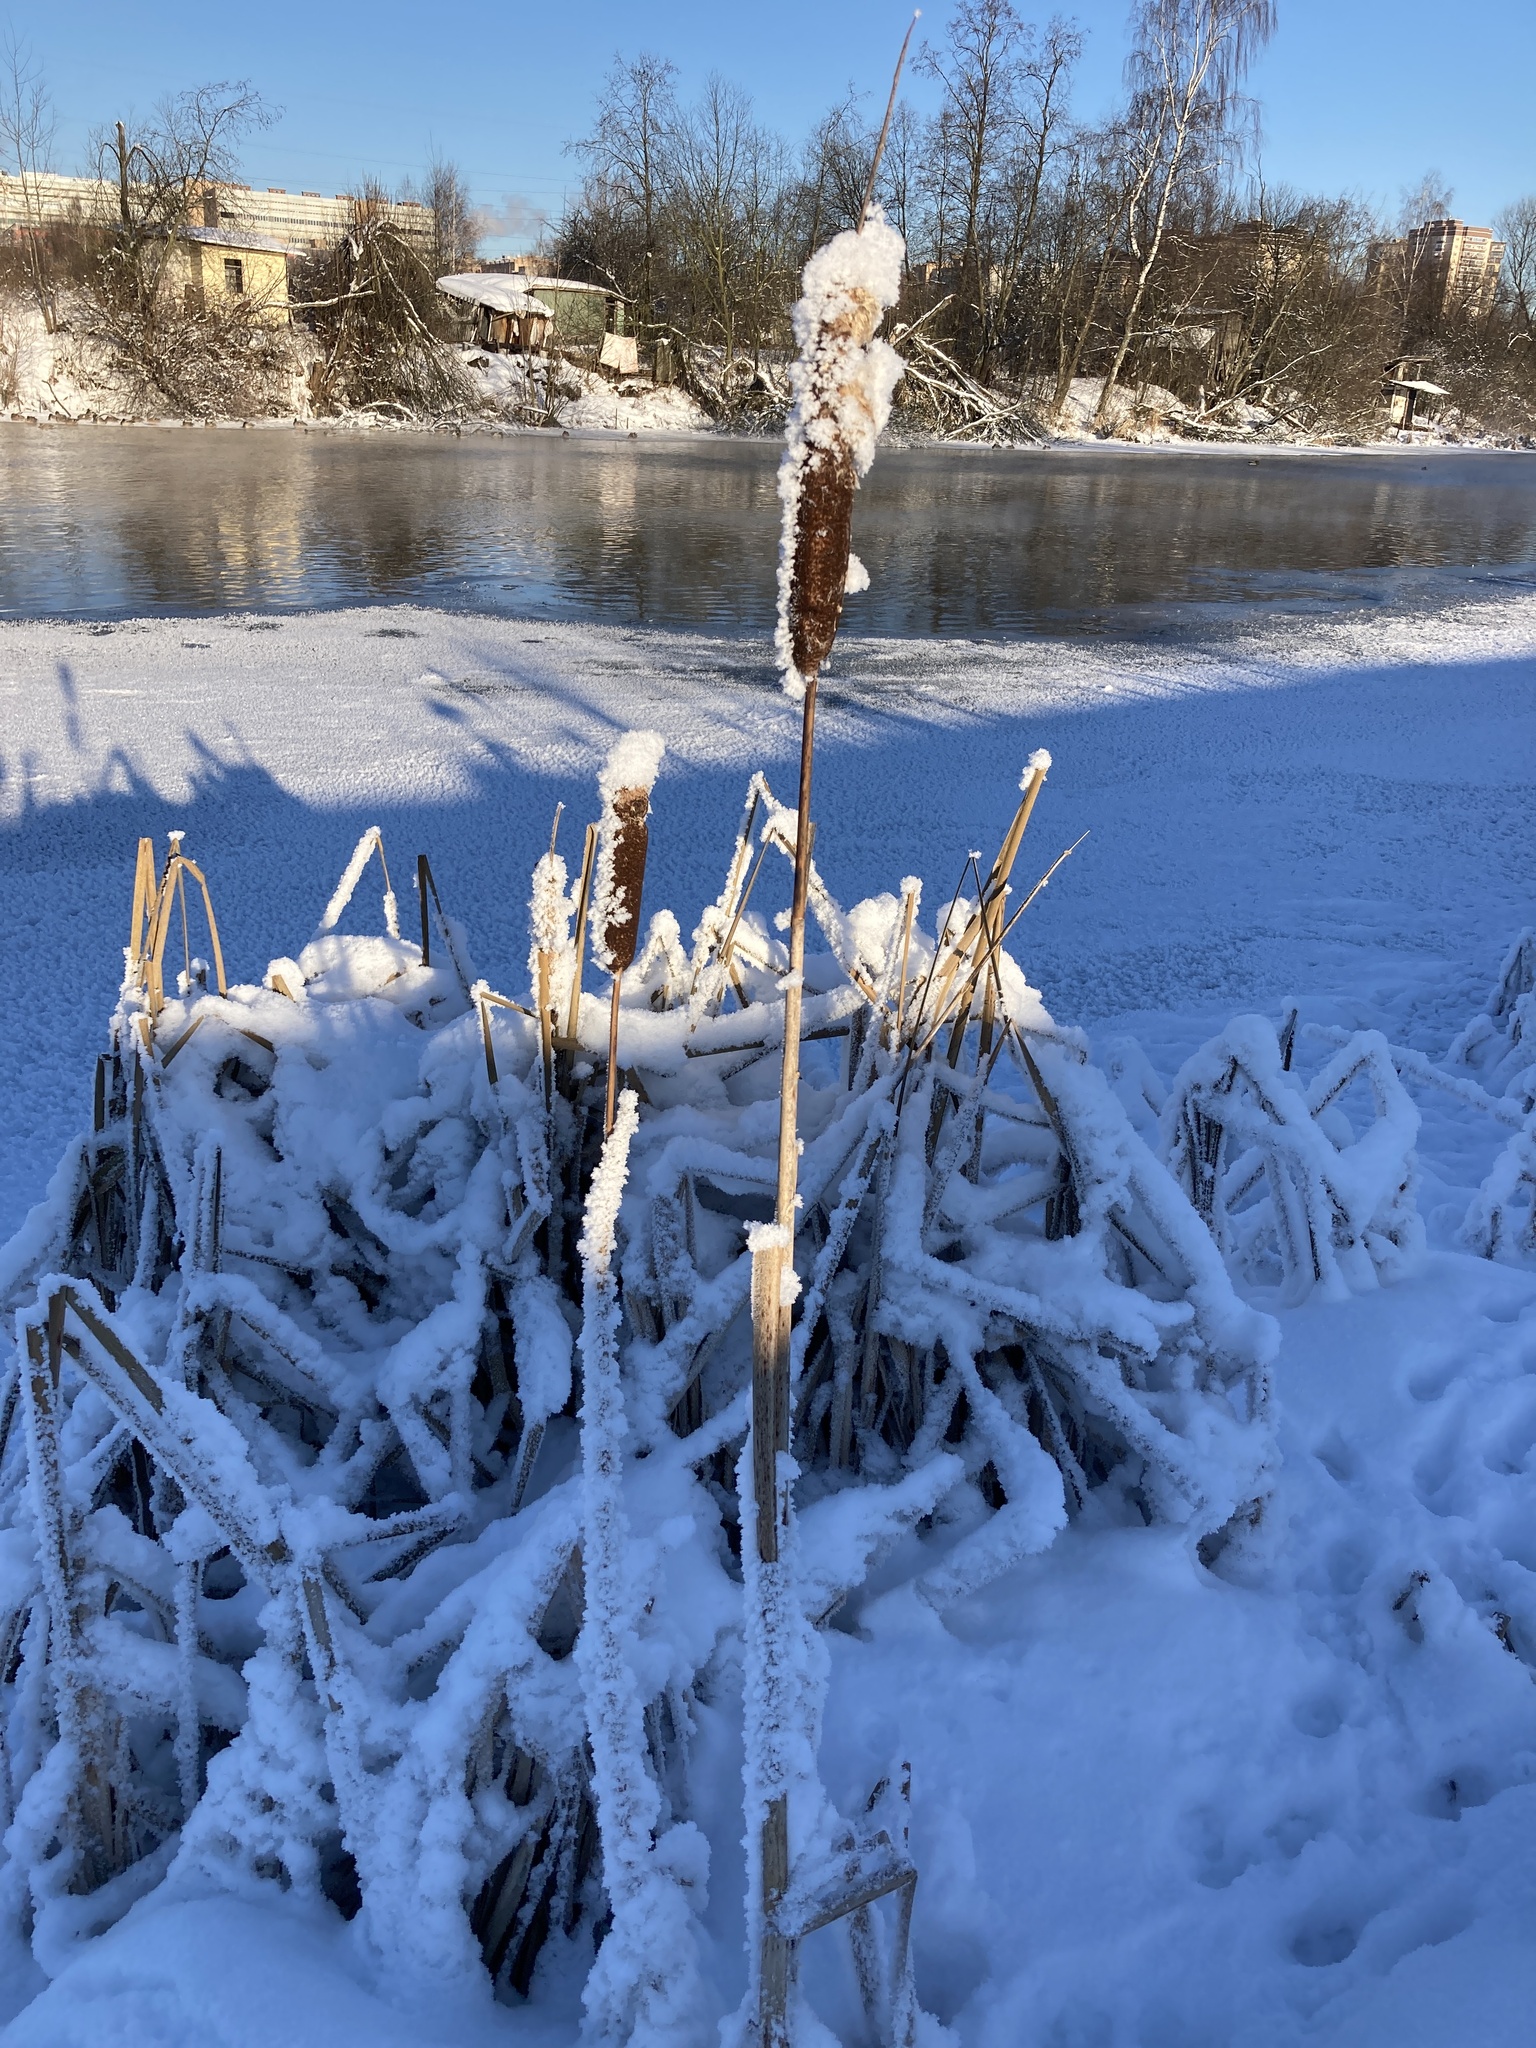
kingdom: Plantae
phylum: Tracheophyta
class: Liliopsida
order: Poales
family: Typhaceae
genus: Typha
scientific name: Typha latifolia
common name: Broadleaf cattail
